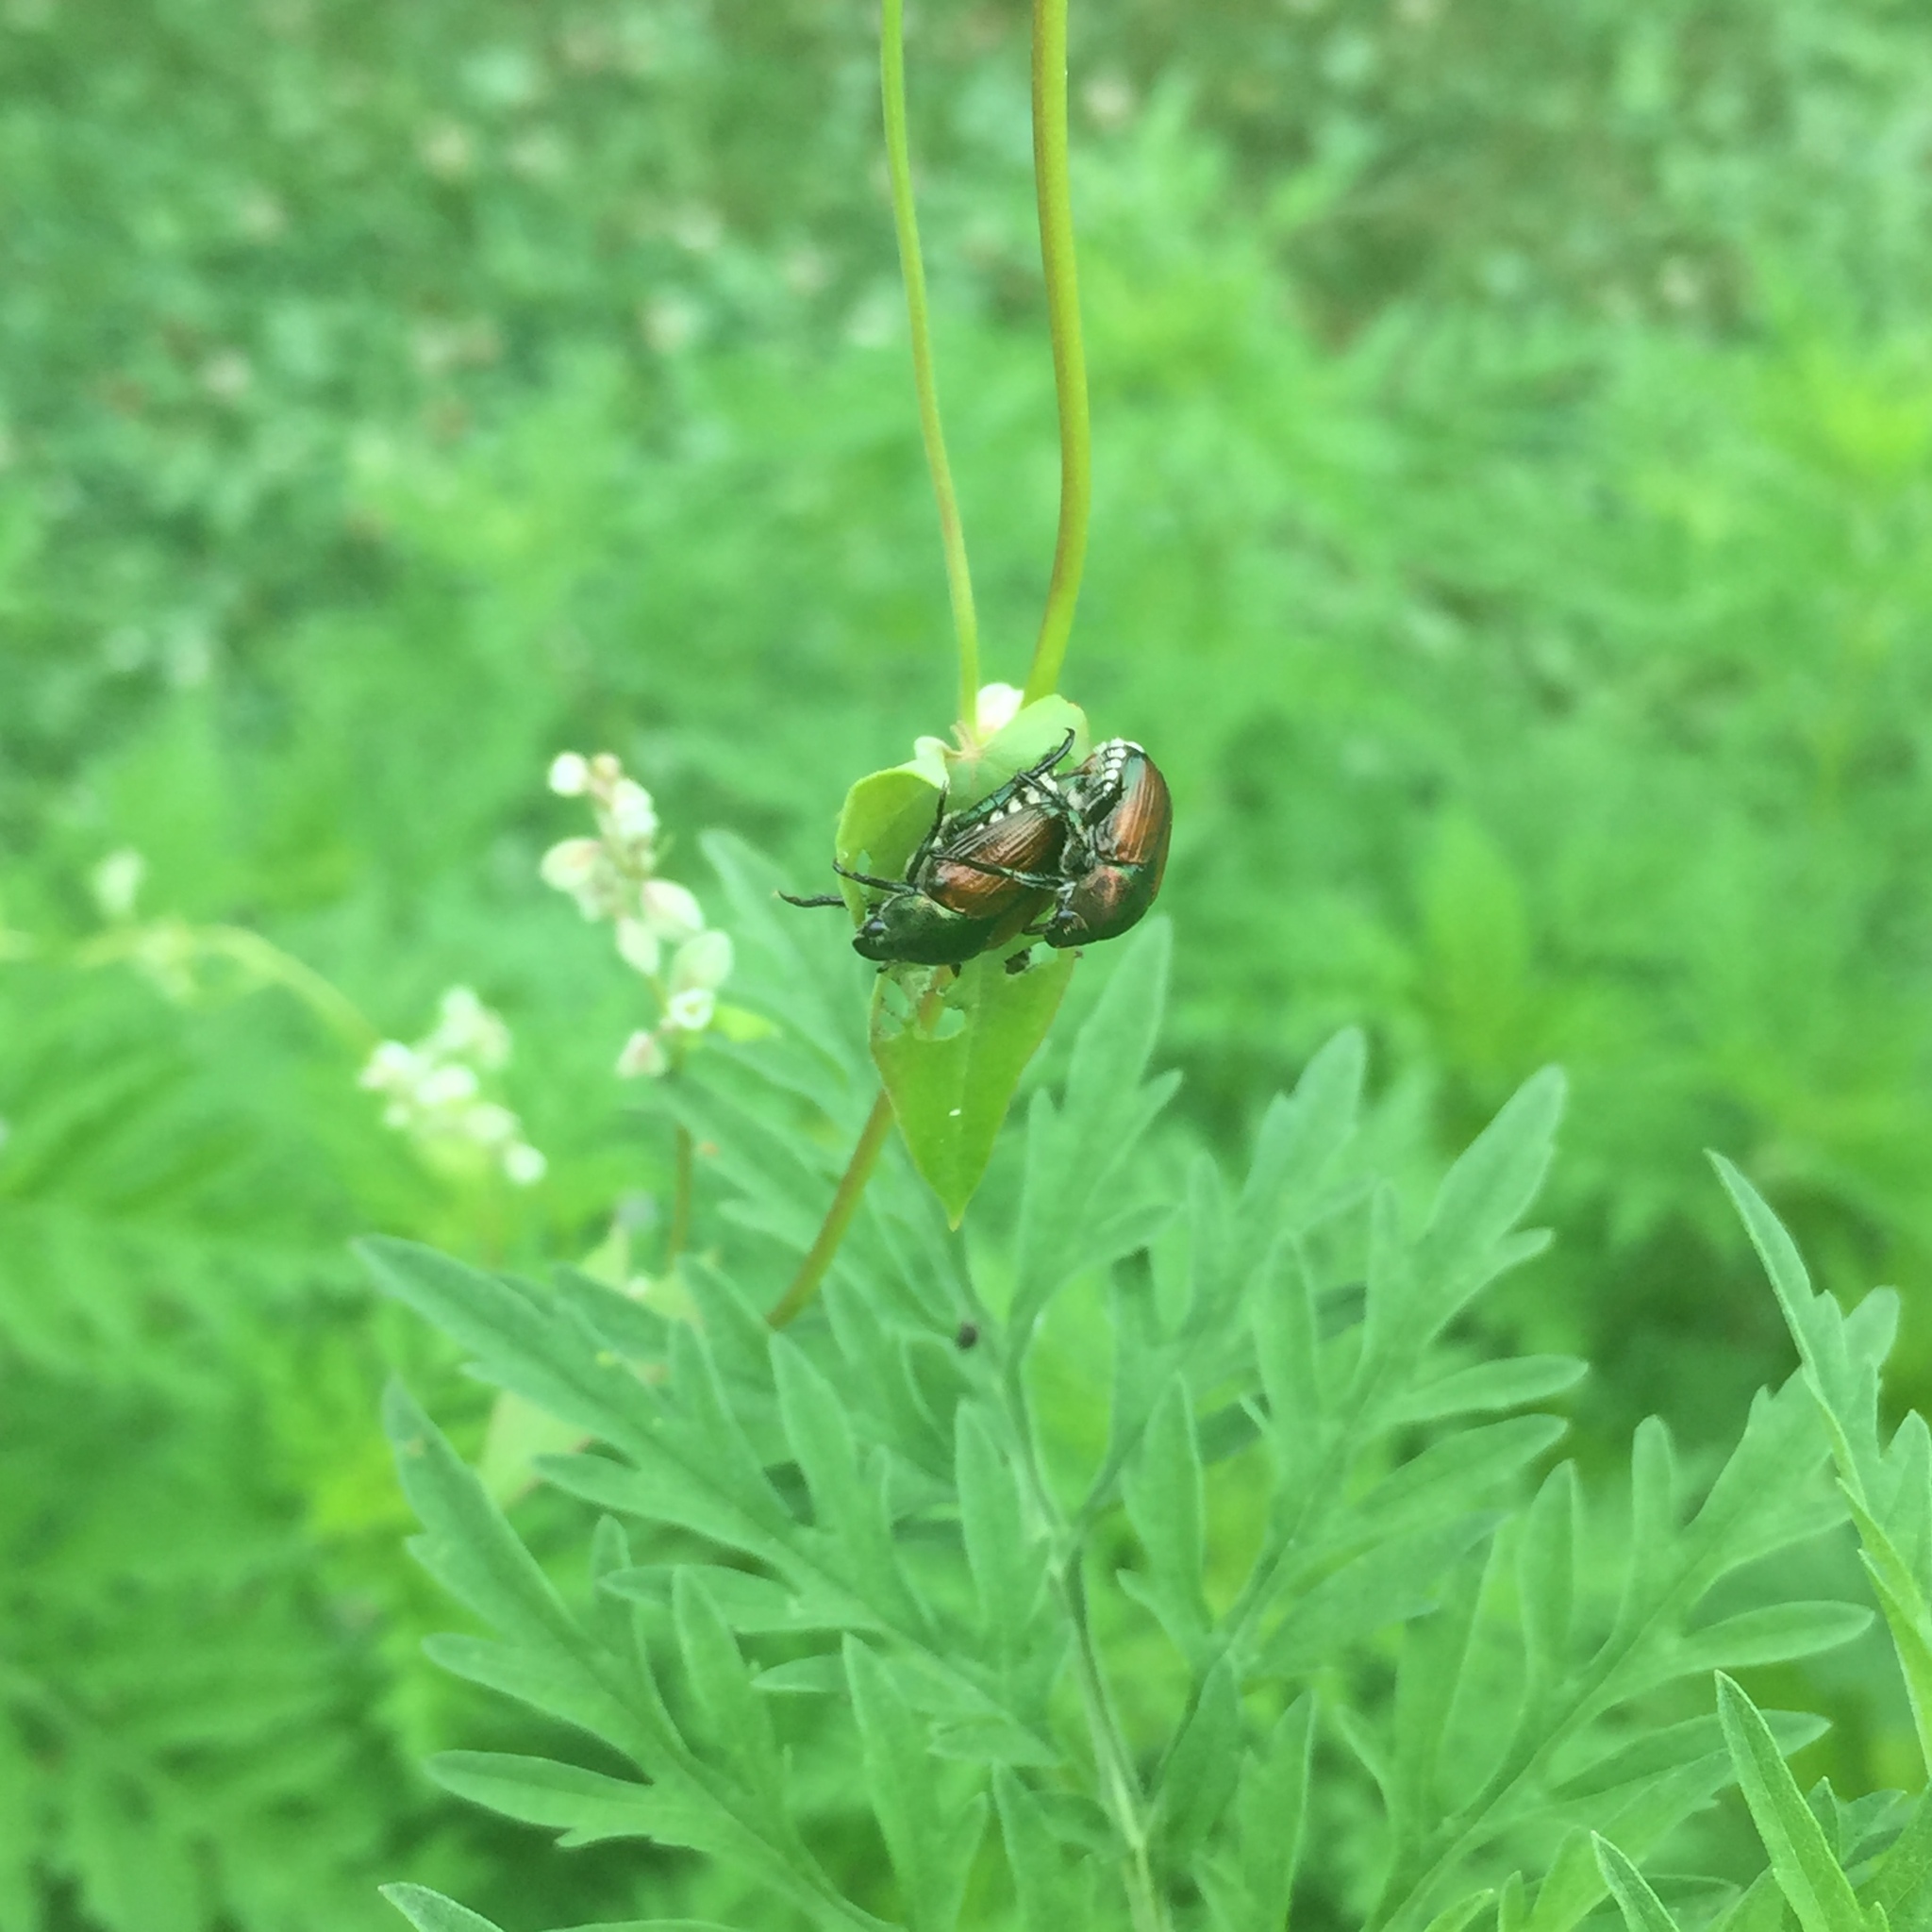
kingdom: Animalia
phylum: Arthropoda
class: Insecta
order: Coleoptera
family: Scarabaeidae
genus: Popillia
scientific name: Popillia japonica
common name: Japanese beetle
